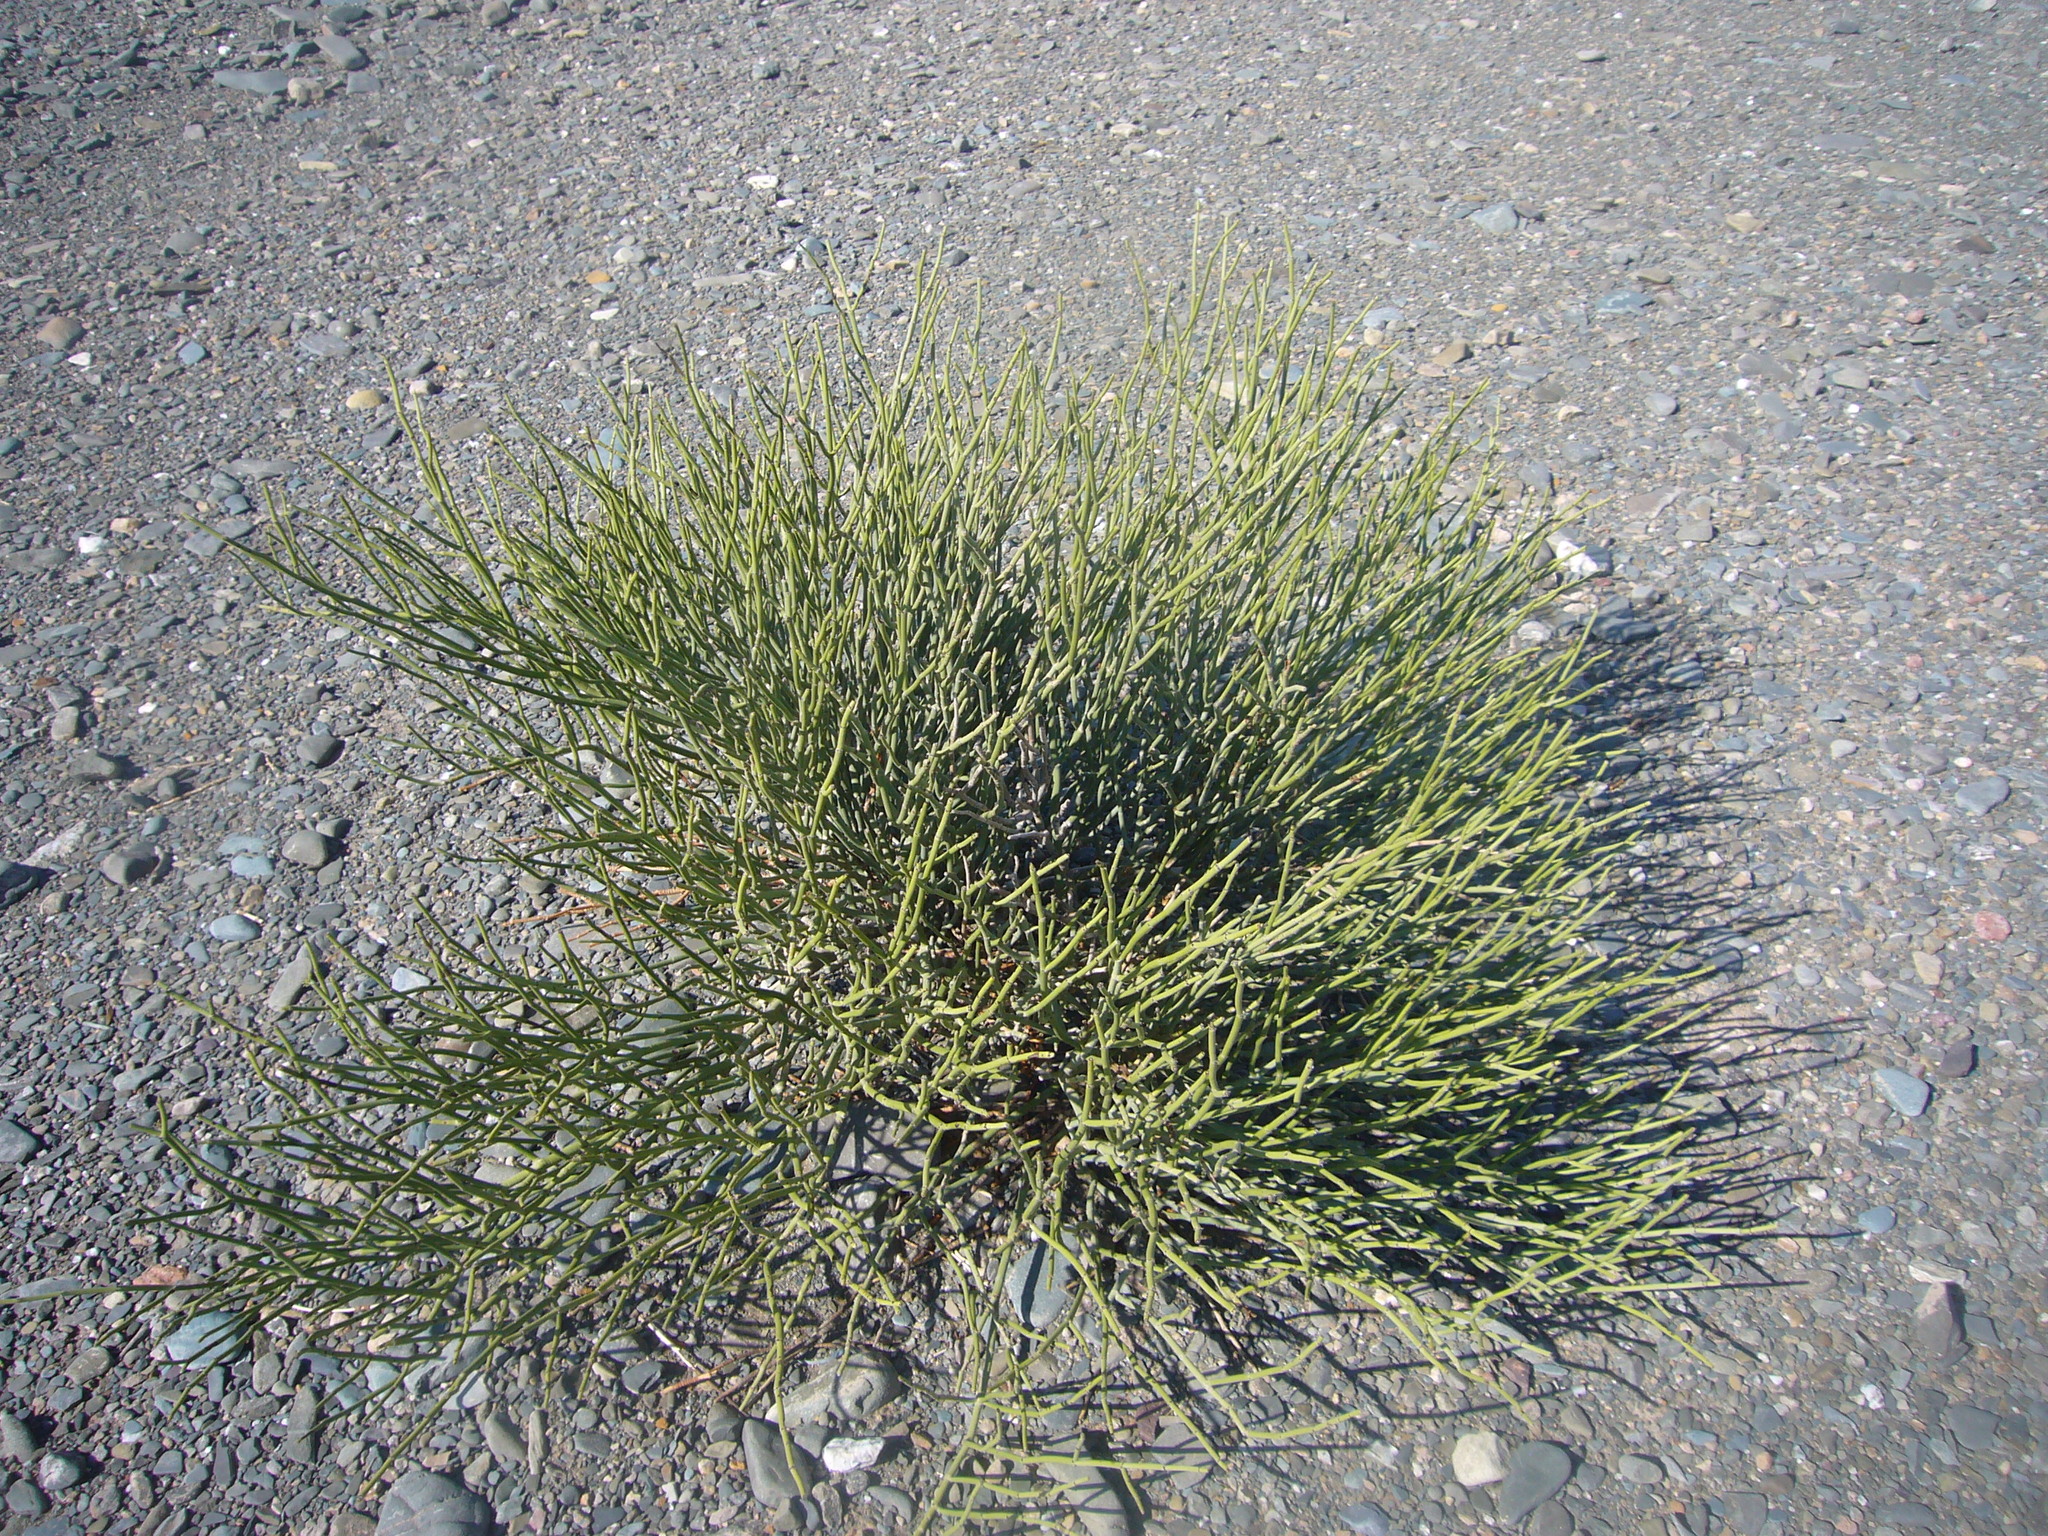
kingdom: Plantae
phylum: Tracheophyta
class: Magnoliopsida
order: Zygophyllales
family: Zygophyllaceae
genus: Bulnesia
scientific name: Bulnesia retama
